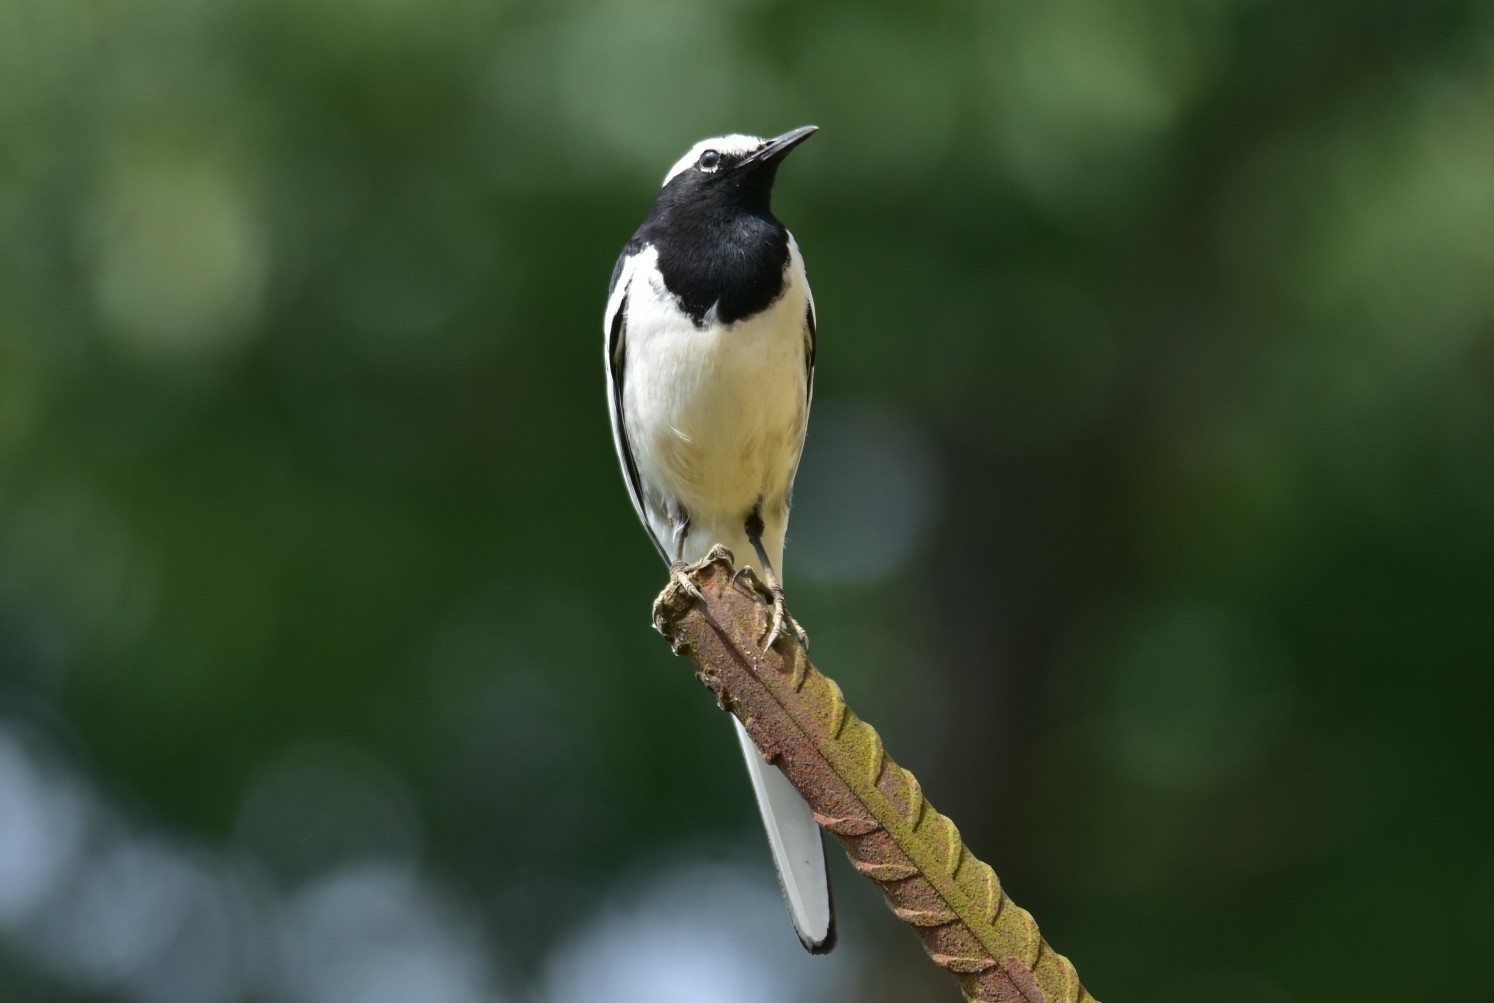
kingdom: Animalia
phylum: Chordata
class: Aves
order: Passeriformes
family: Motacillidae
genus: Motacilla
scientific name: Motacilla maderaspatensis
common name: White-browed wagtail
